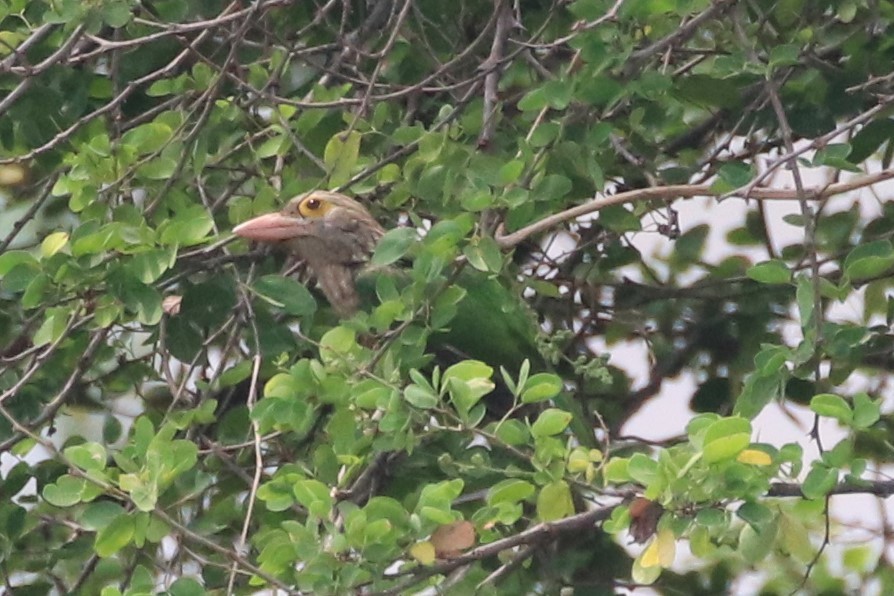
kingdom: Animalia
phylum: Chordata
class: Aves
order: Piciformes
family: Megalaimidae
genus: Psilopogon
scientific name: Psilopogon lineatus
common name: Lineated barbet
